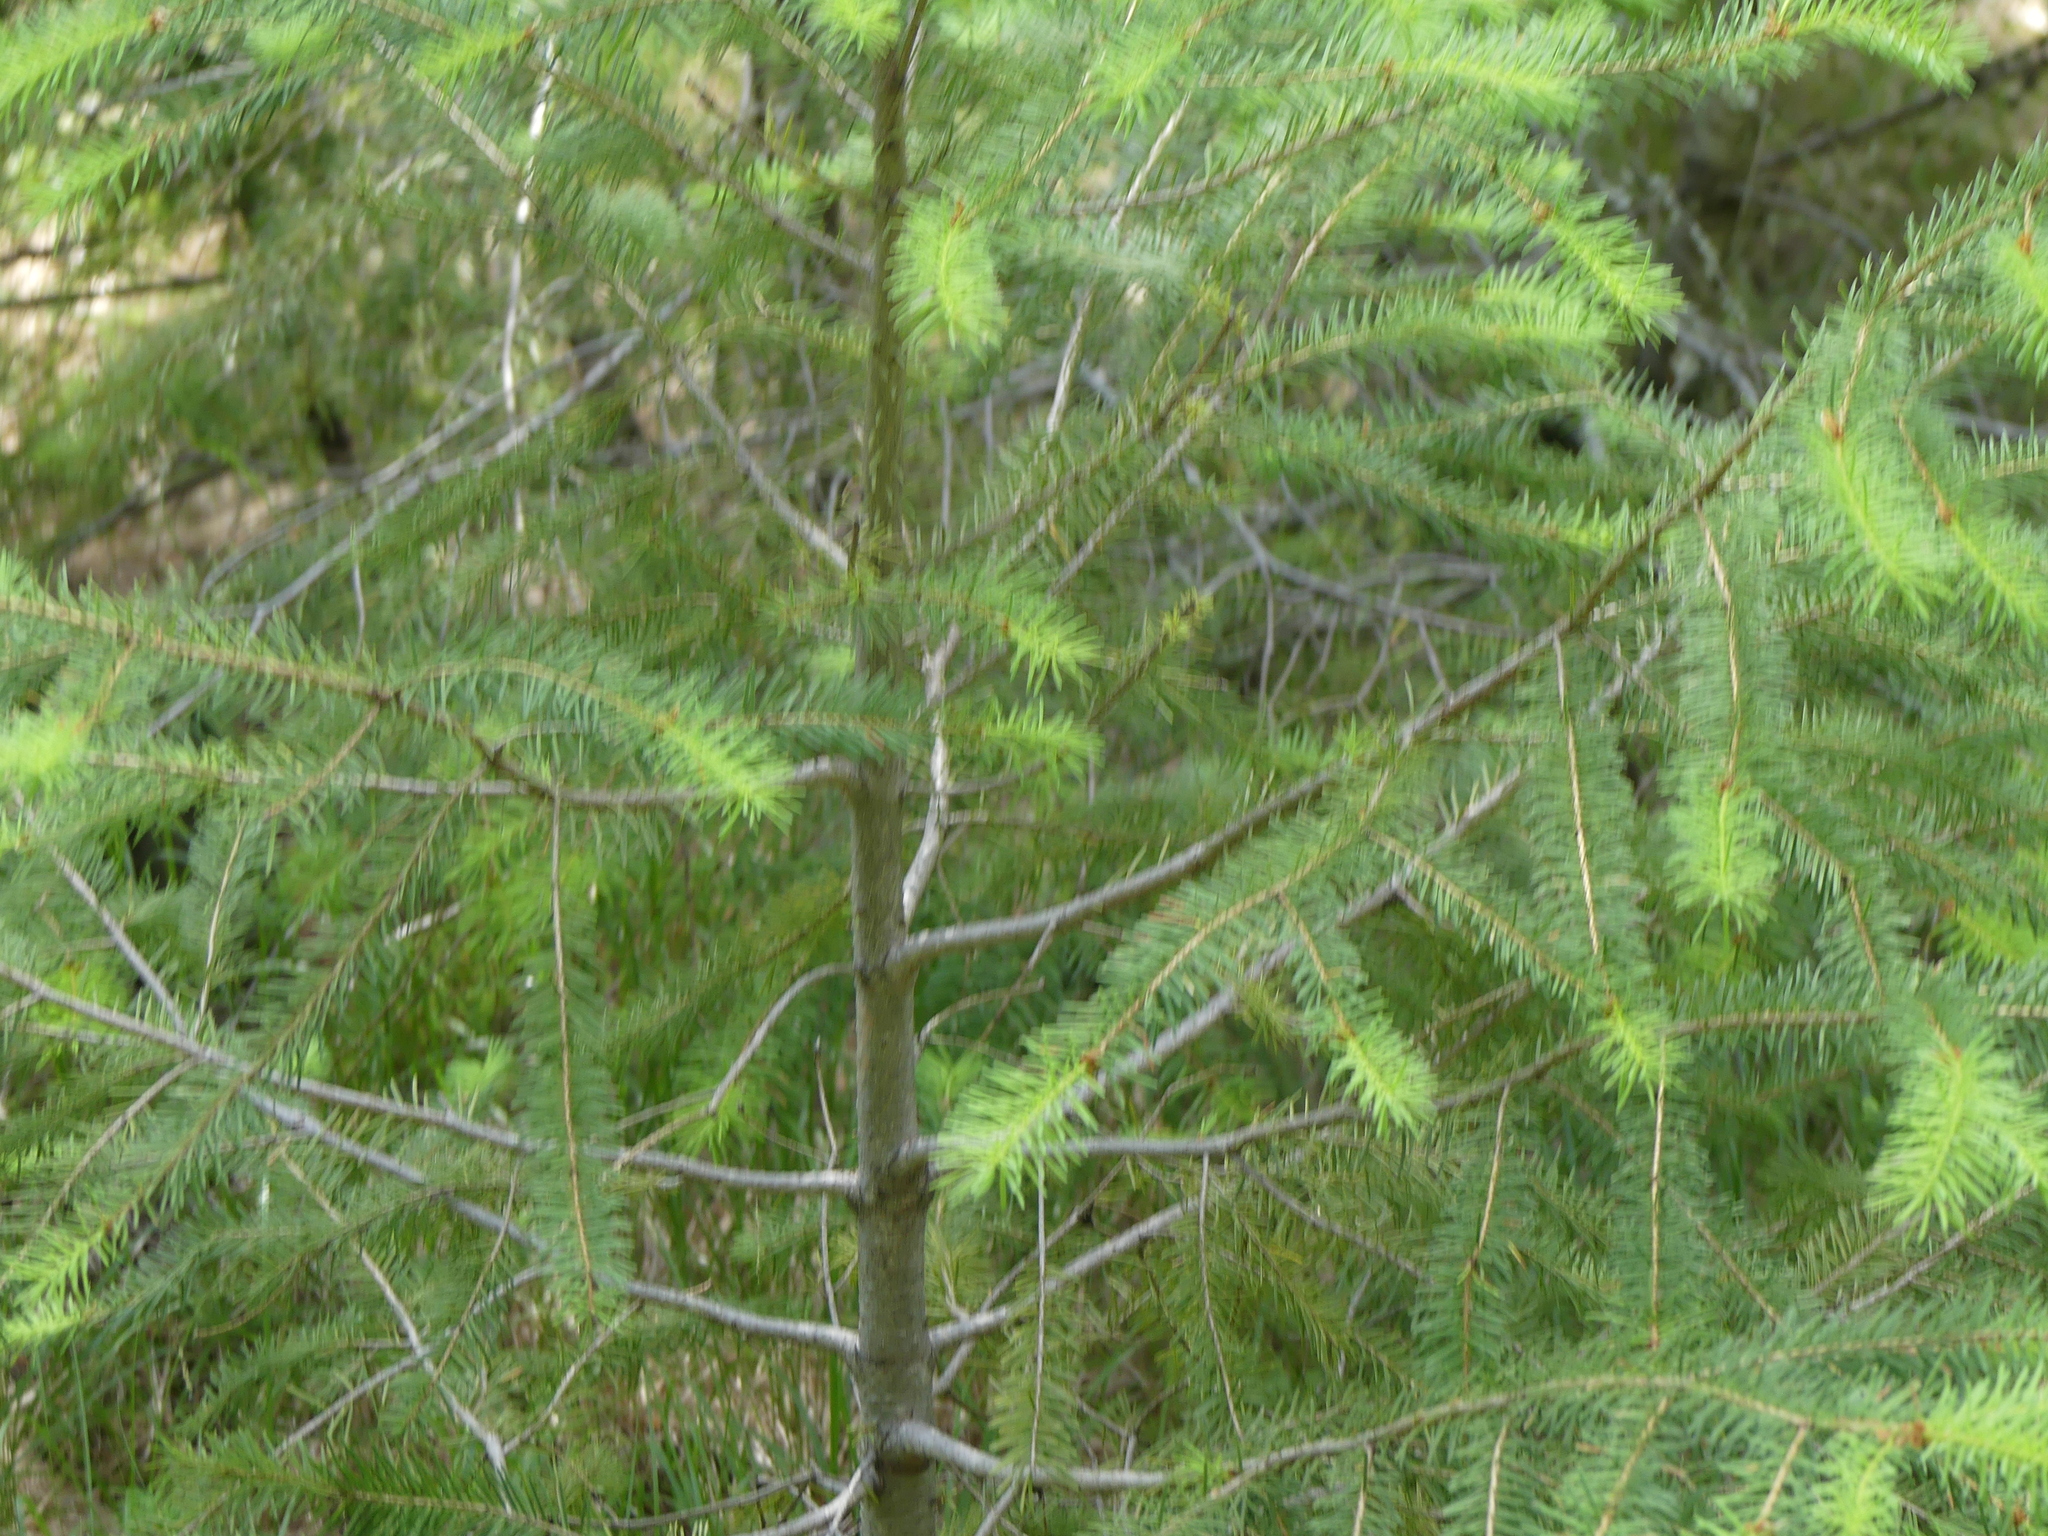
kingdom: Plantae
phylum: Tracheophyta
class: Pinopsida
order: Pinales
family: Pinaceae
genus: Pseudotsuga
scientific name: Pseudotsuga menziesii
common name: Douglas fir
